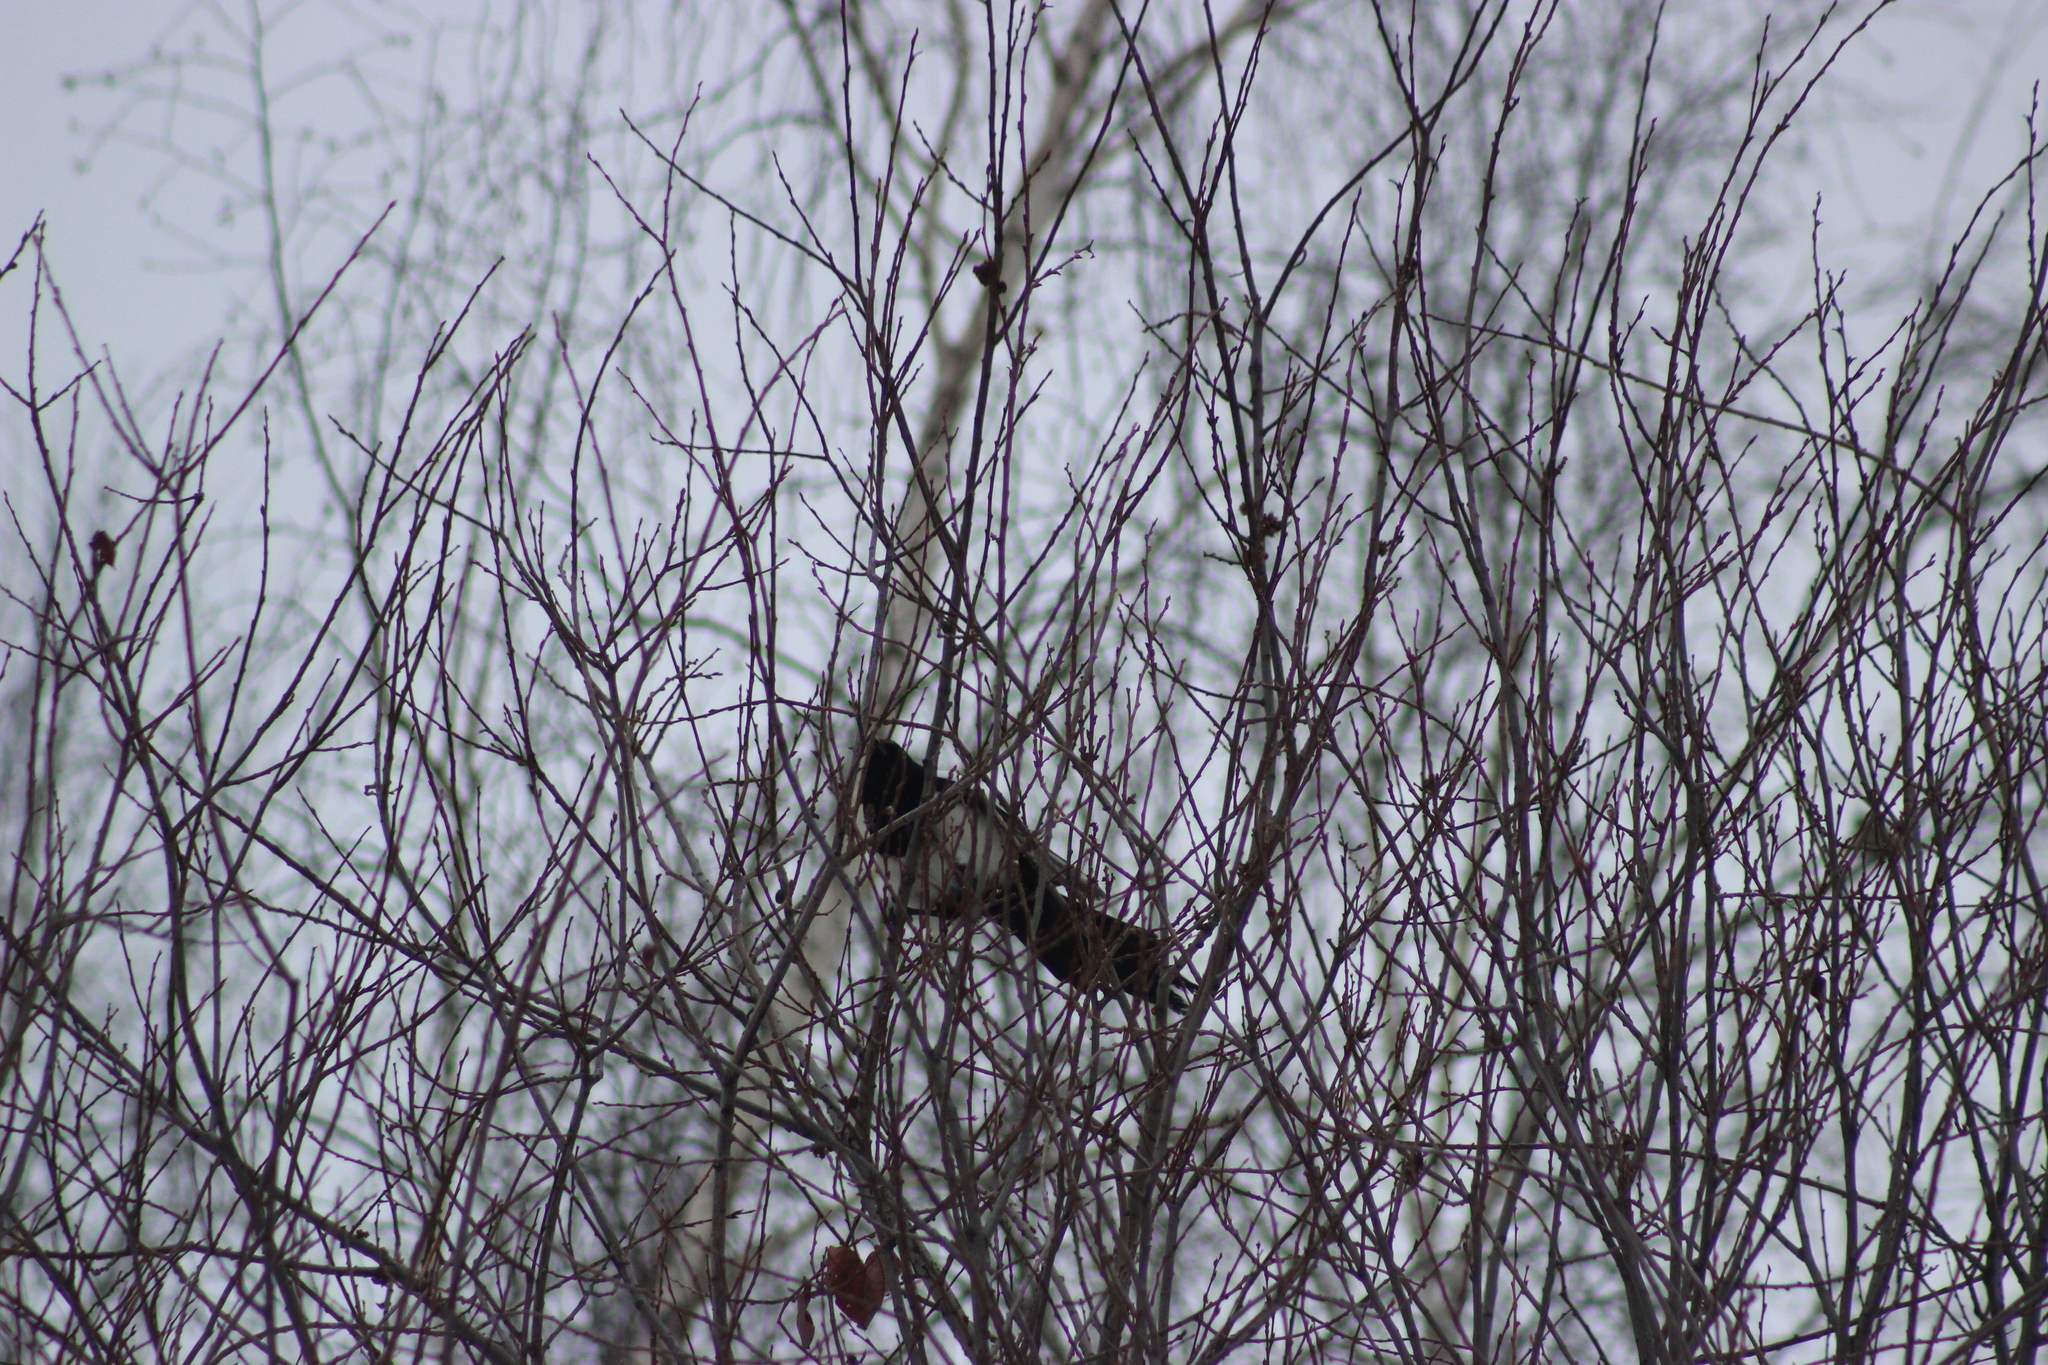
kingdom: Animalia
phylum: Chordata
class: Aves
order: Passeriformes
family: Corvidae
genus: Pica
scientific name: Pica pica
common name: Eurasian magpie
